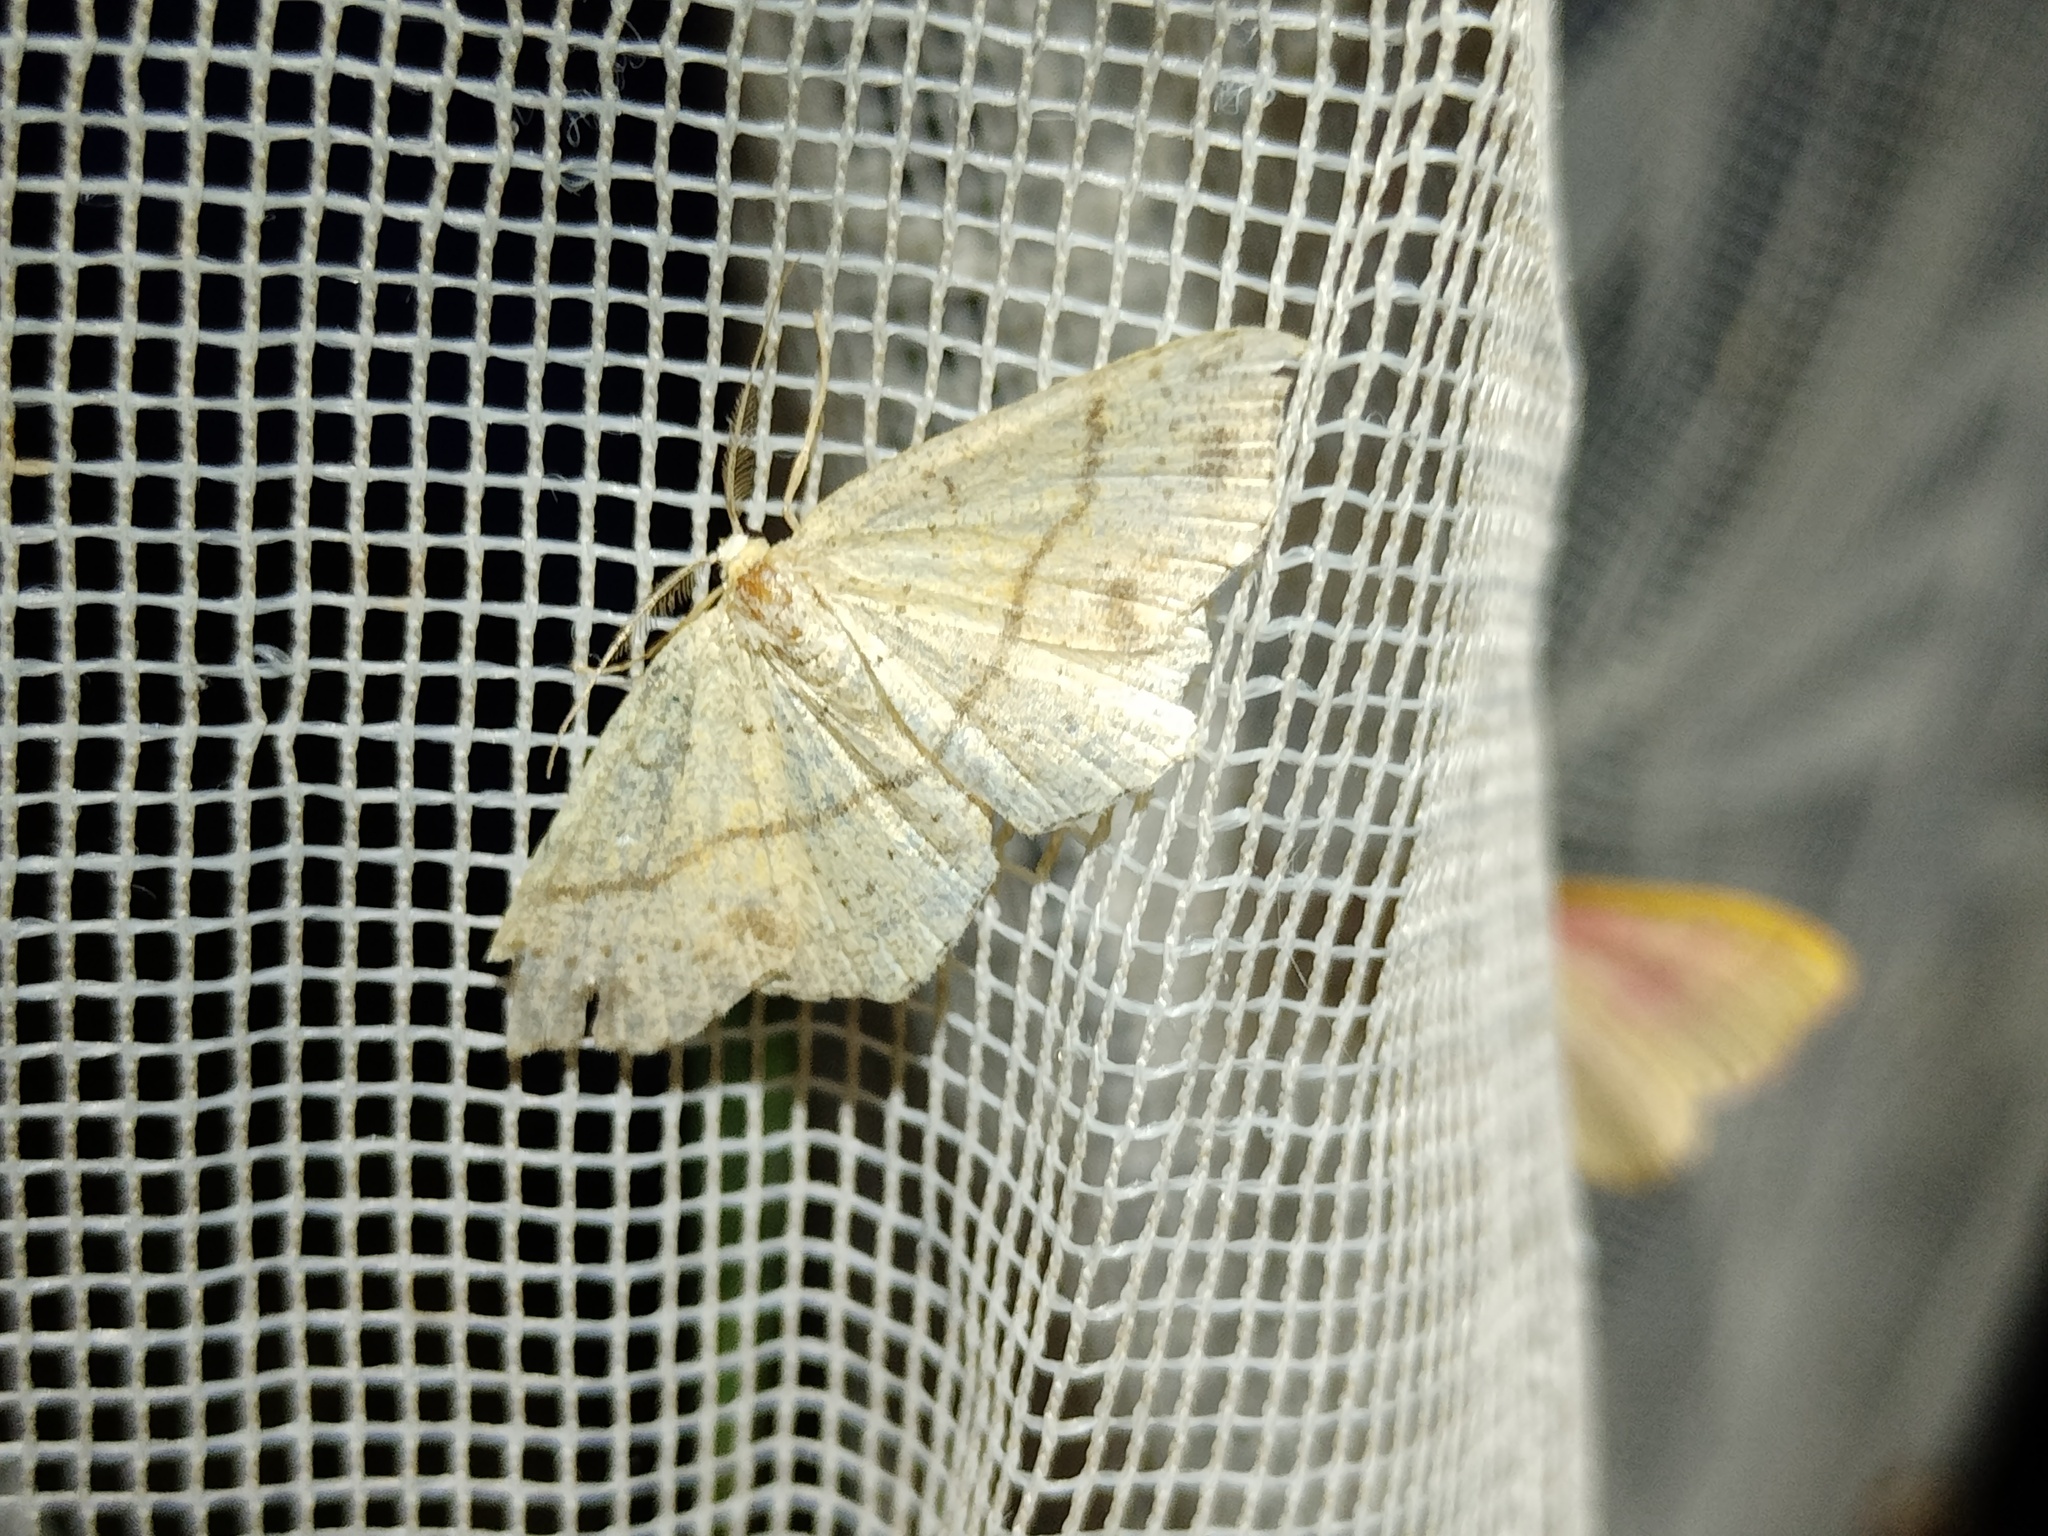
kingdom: Animalia
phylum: Arthropoda
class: Insecta
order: Lepidoptera
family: Geometridae
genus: Cyclophora
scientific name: Cyclophora punctaria
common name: Maiden's blush
